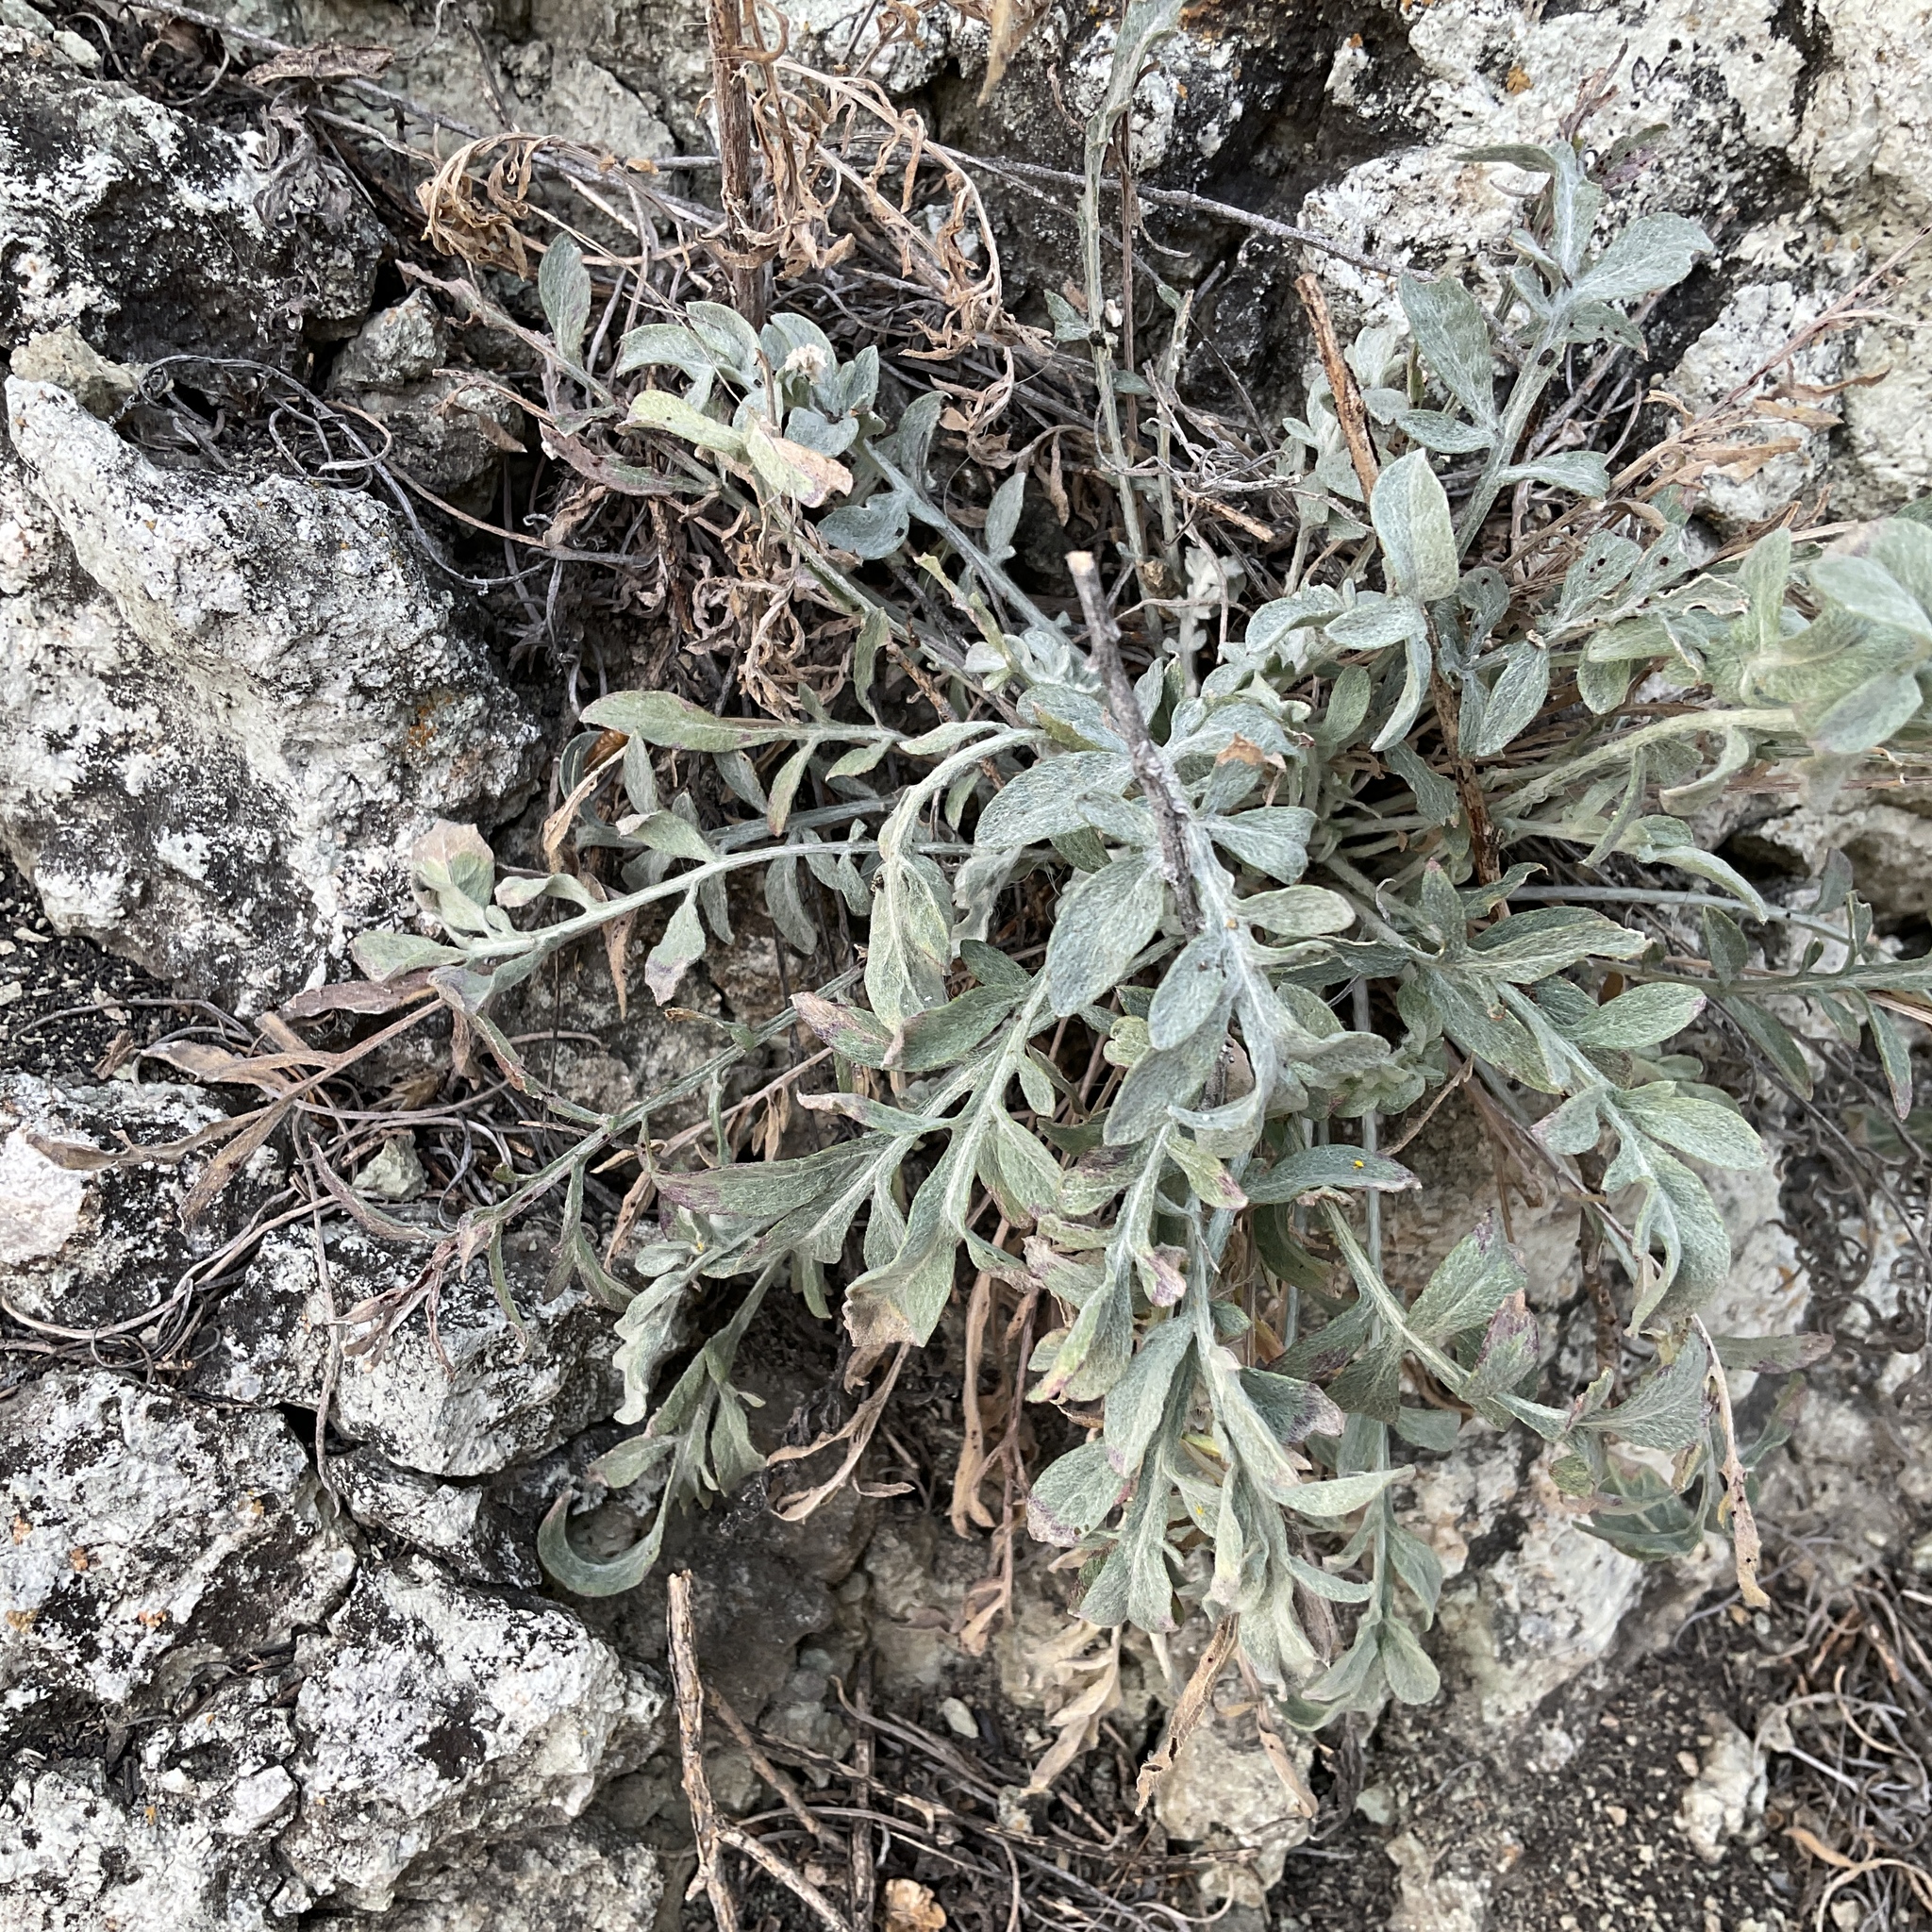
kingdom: Plantae
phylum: Tracheophyta
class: Magnoliopsida
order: Asterales
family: Asteraceae
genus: Centaurea
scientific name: Centaurea diffusa
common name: Diffuse knapweed
